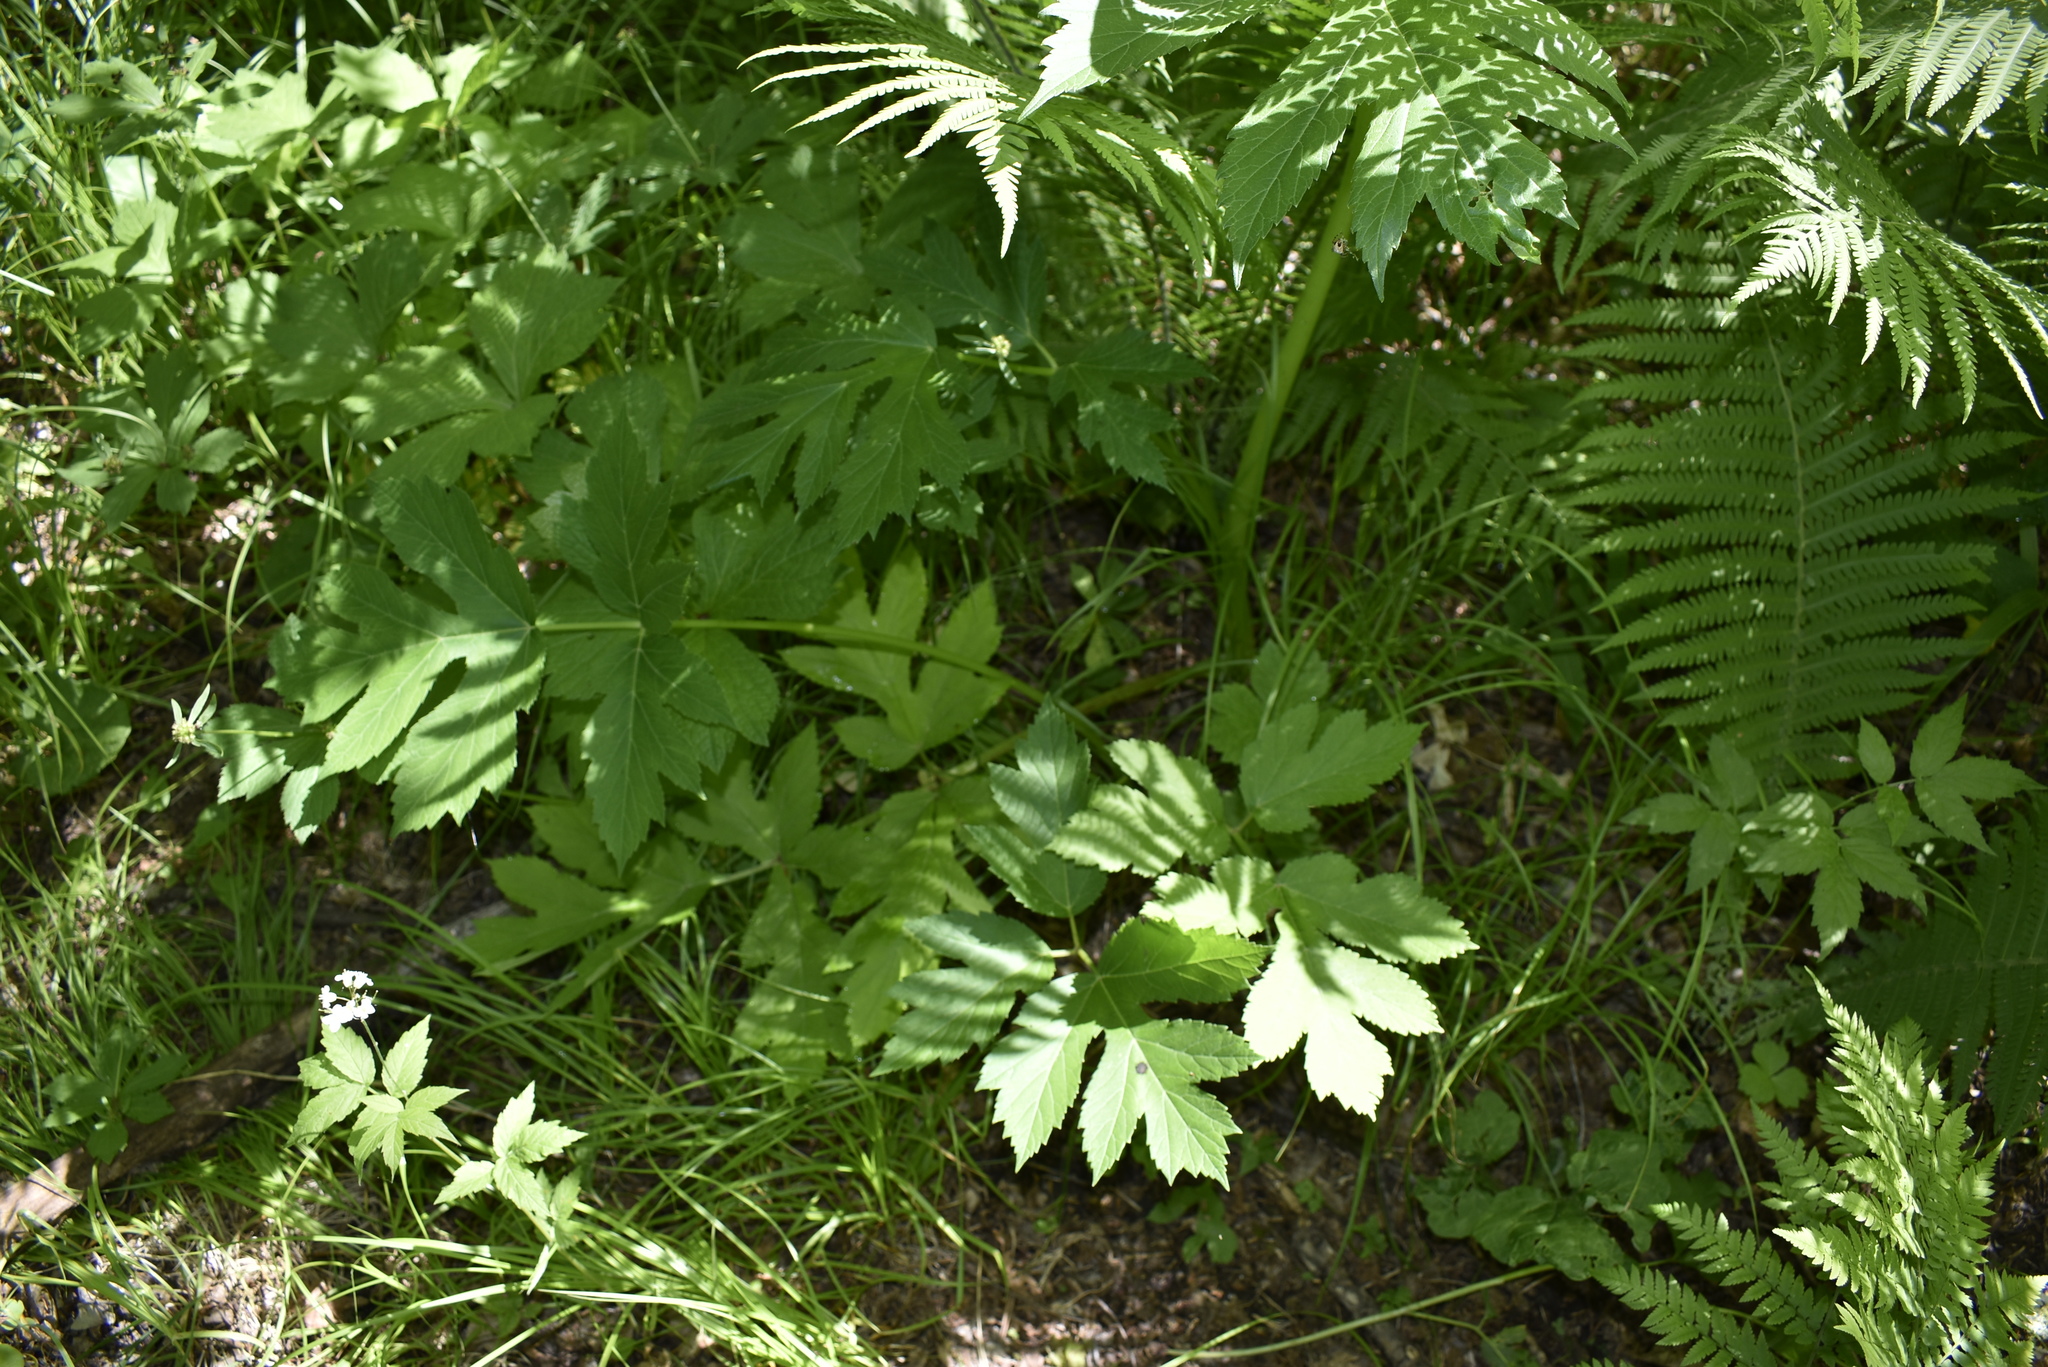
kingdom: Plantae
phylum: Tracheophyta
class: Magnoliopsida
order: Apiales
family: Apiaceae
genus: Heracleum
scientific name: Heracleum dissectum
